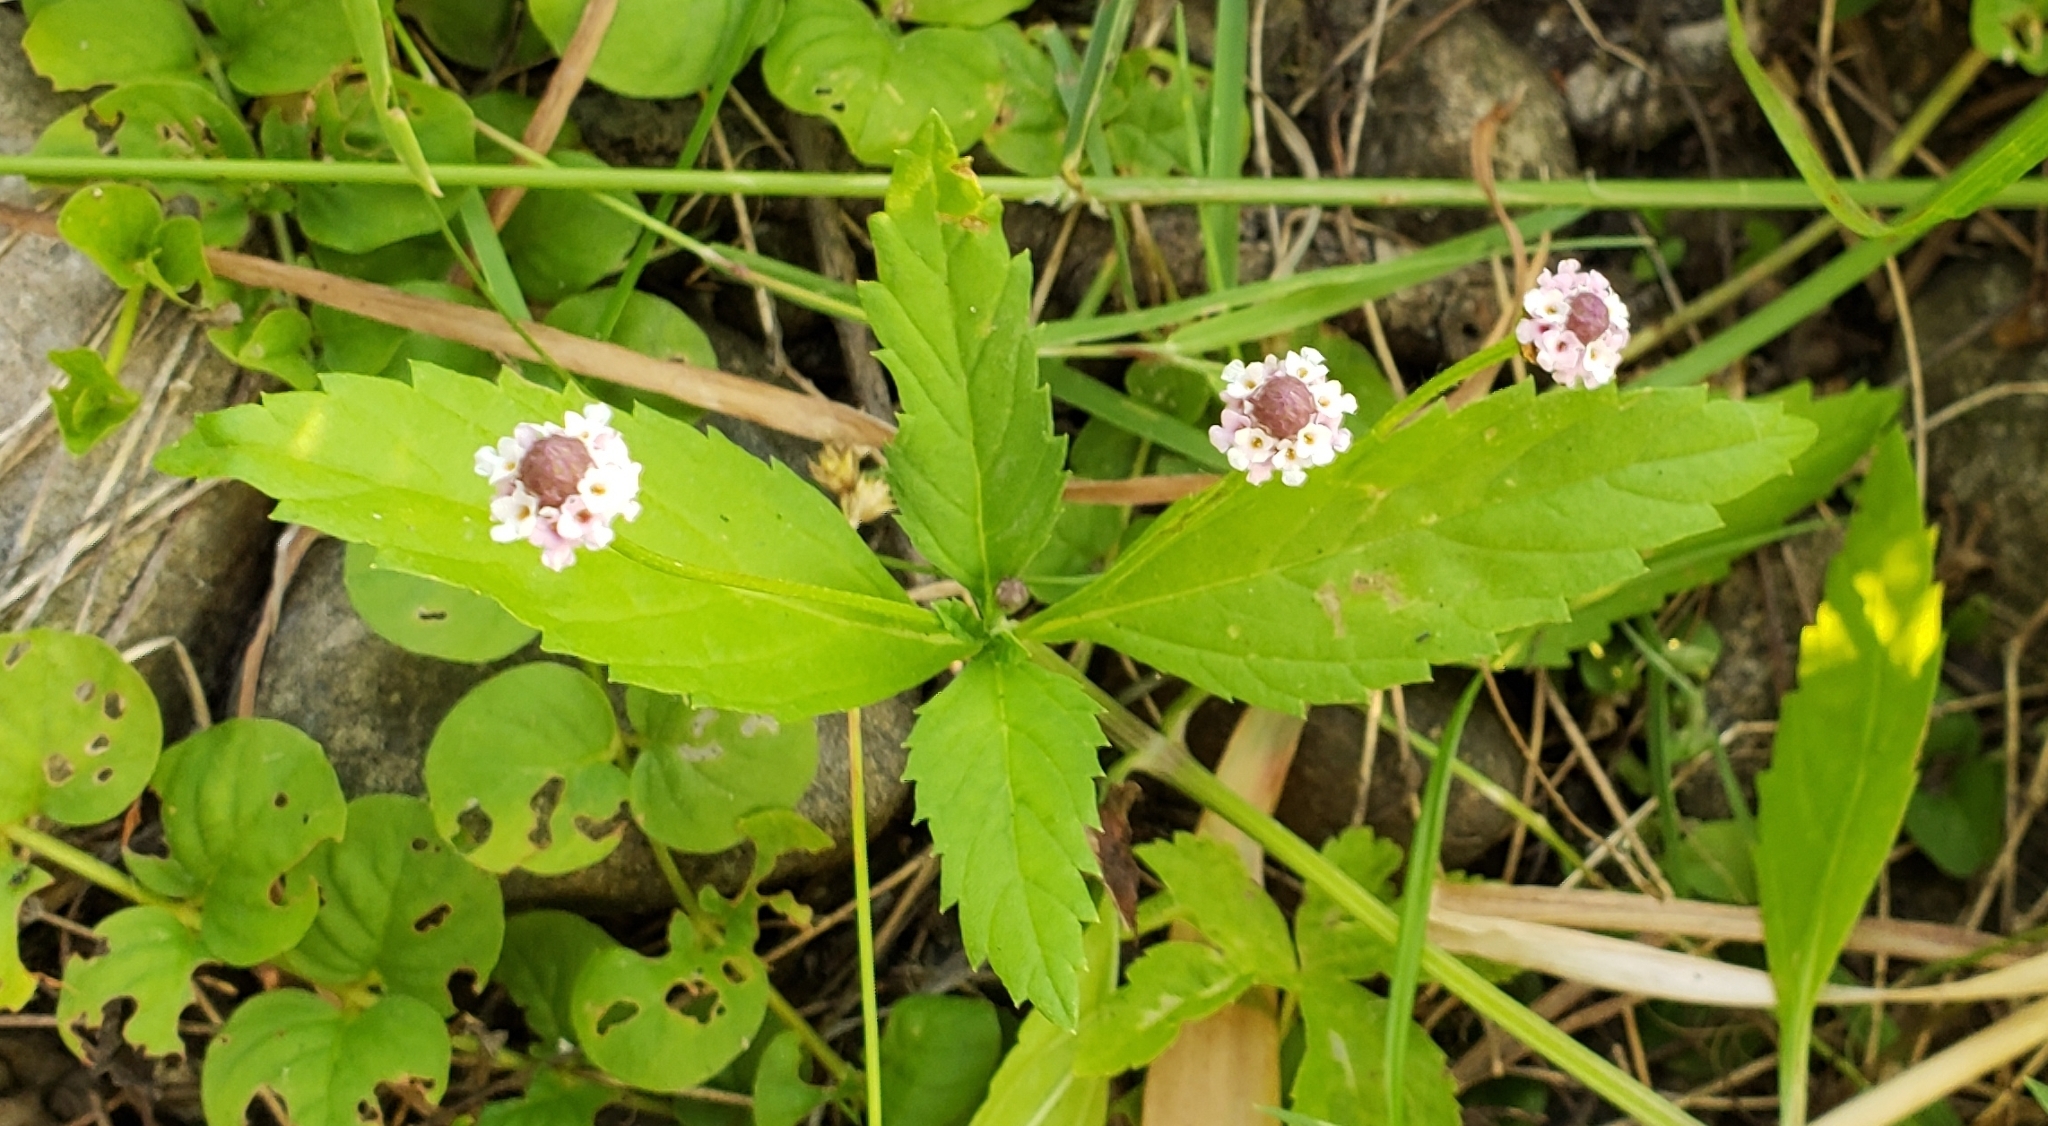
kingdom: Plantae
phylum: Tracheophyta
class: Magnoliopsida
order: Lamiales
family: Verbenaceae
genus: Phyla
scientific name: Phyla lanceolata
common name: Northern fogfruit
